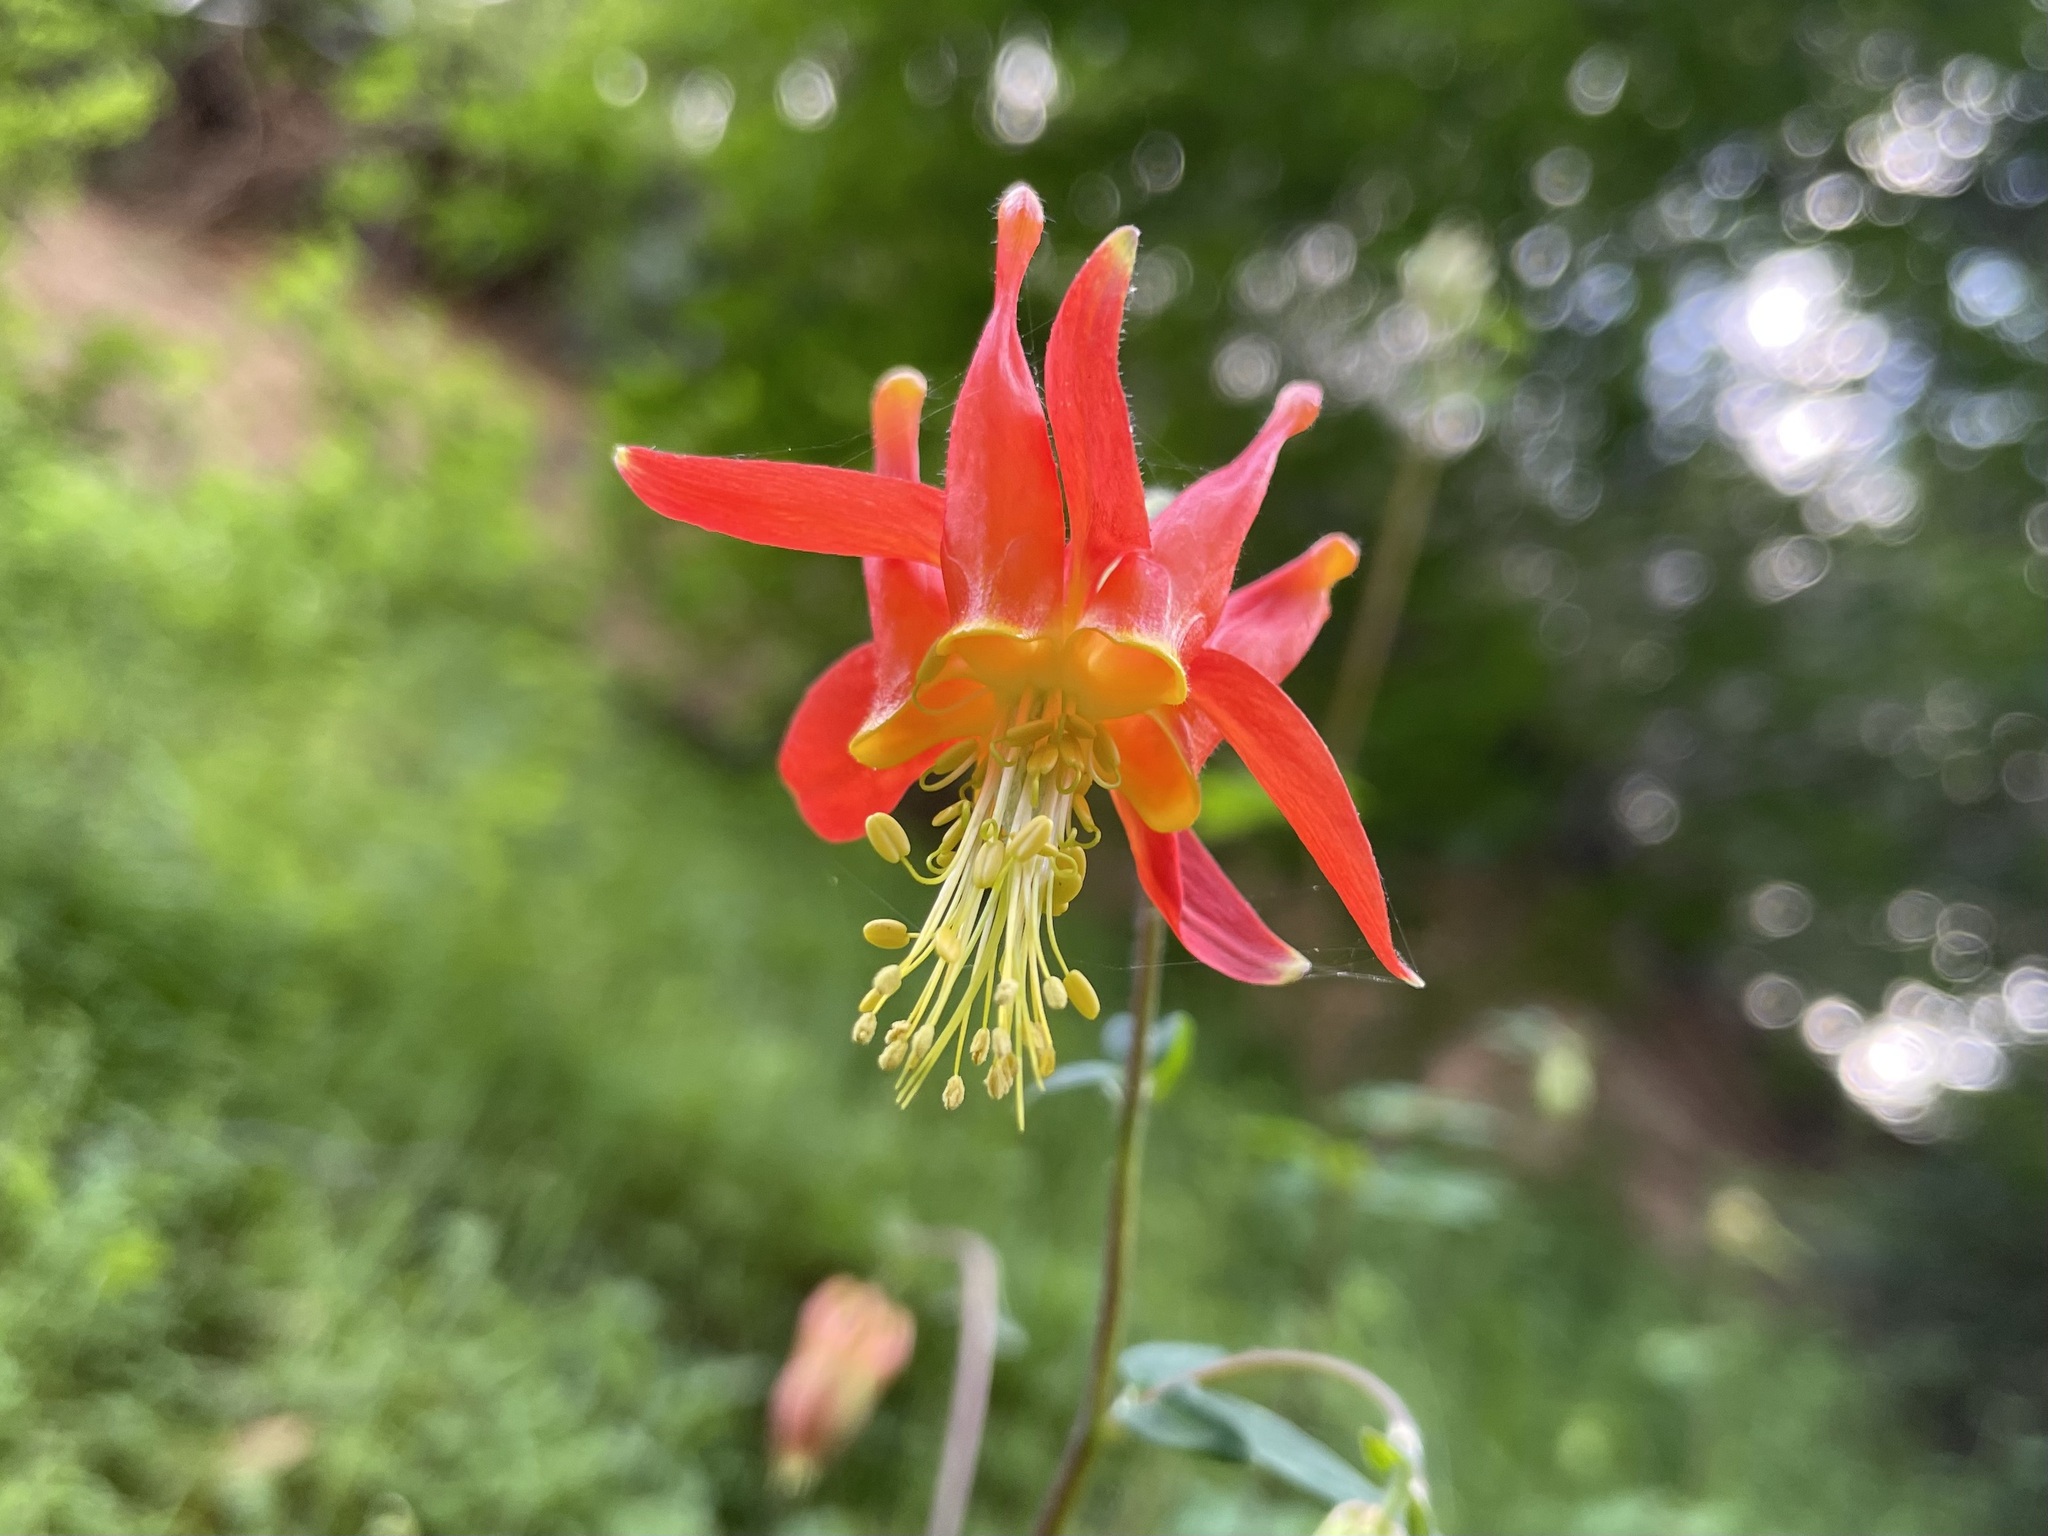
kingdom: Plantae
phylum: Tracheophyta
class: Magnoliopsida
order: Ranunculales
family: Ranunculaceae
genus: Aquilegia
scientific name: Aquilegia formosa
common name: Sitka columbine
